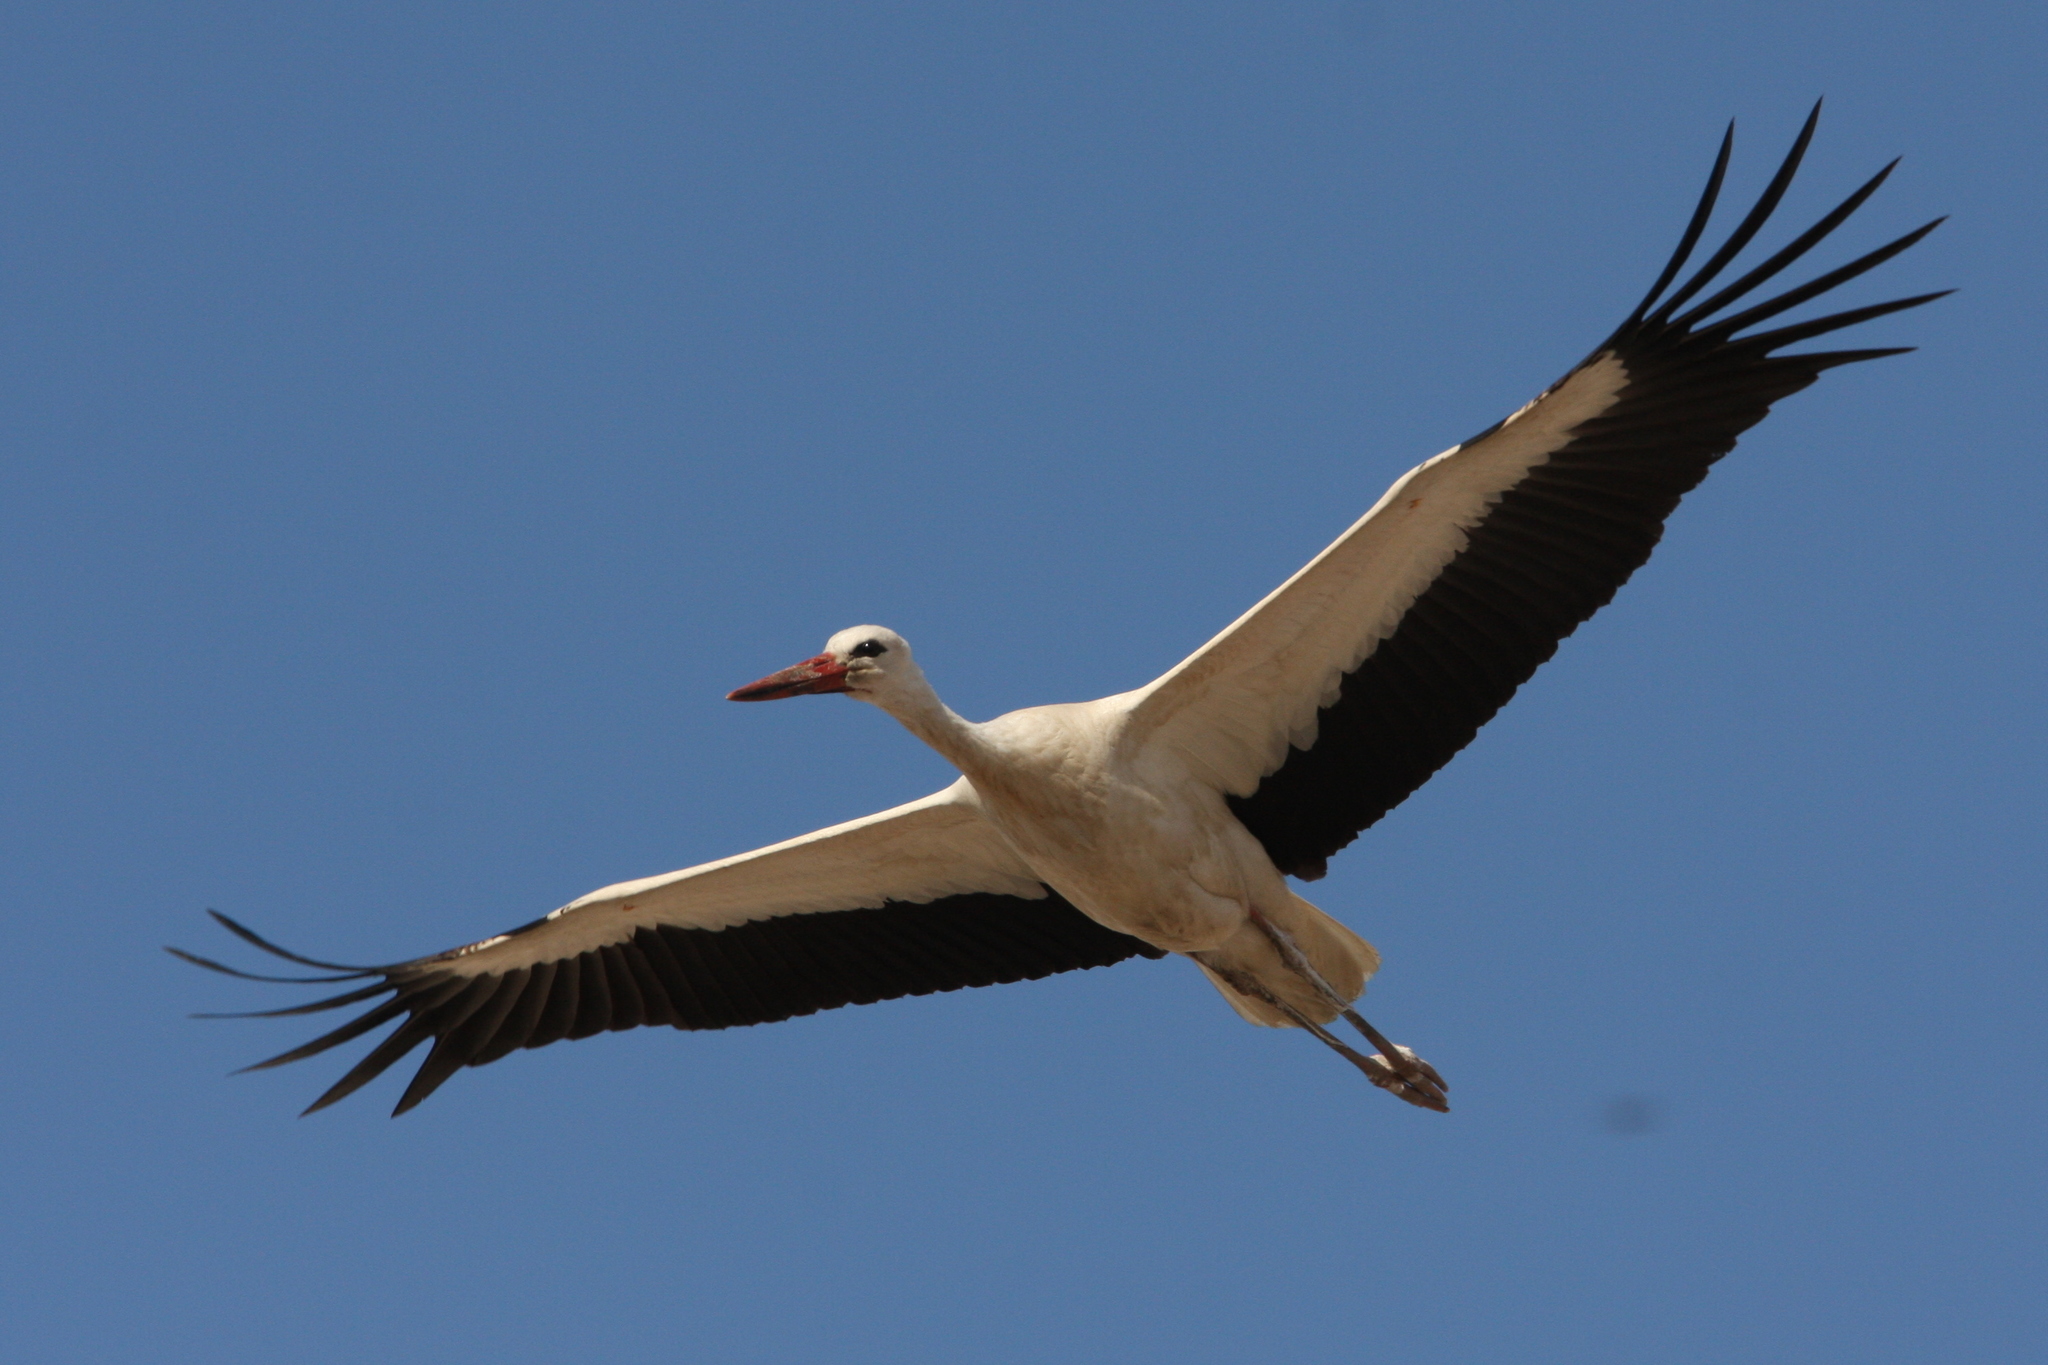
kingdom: Animalia
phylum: Chordata
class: Aves
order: Ciconiiformes
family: Ciconiidae
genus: Ciconia
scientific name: Ciconia ciconia
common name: White stork
